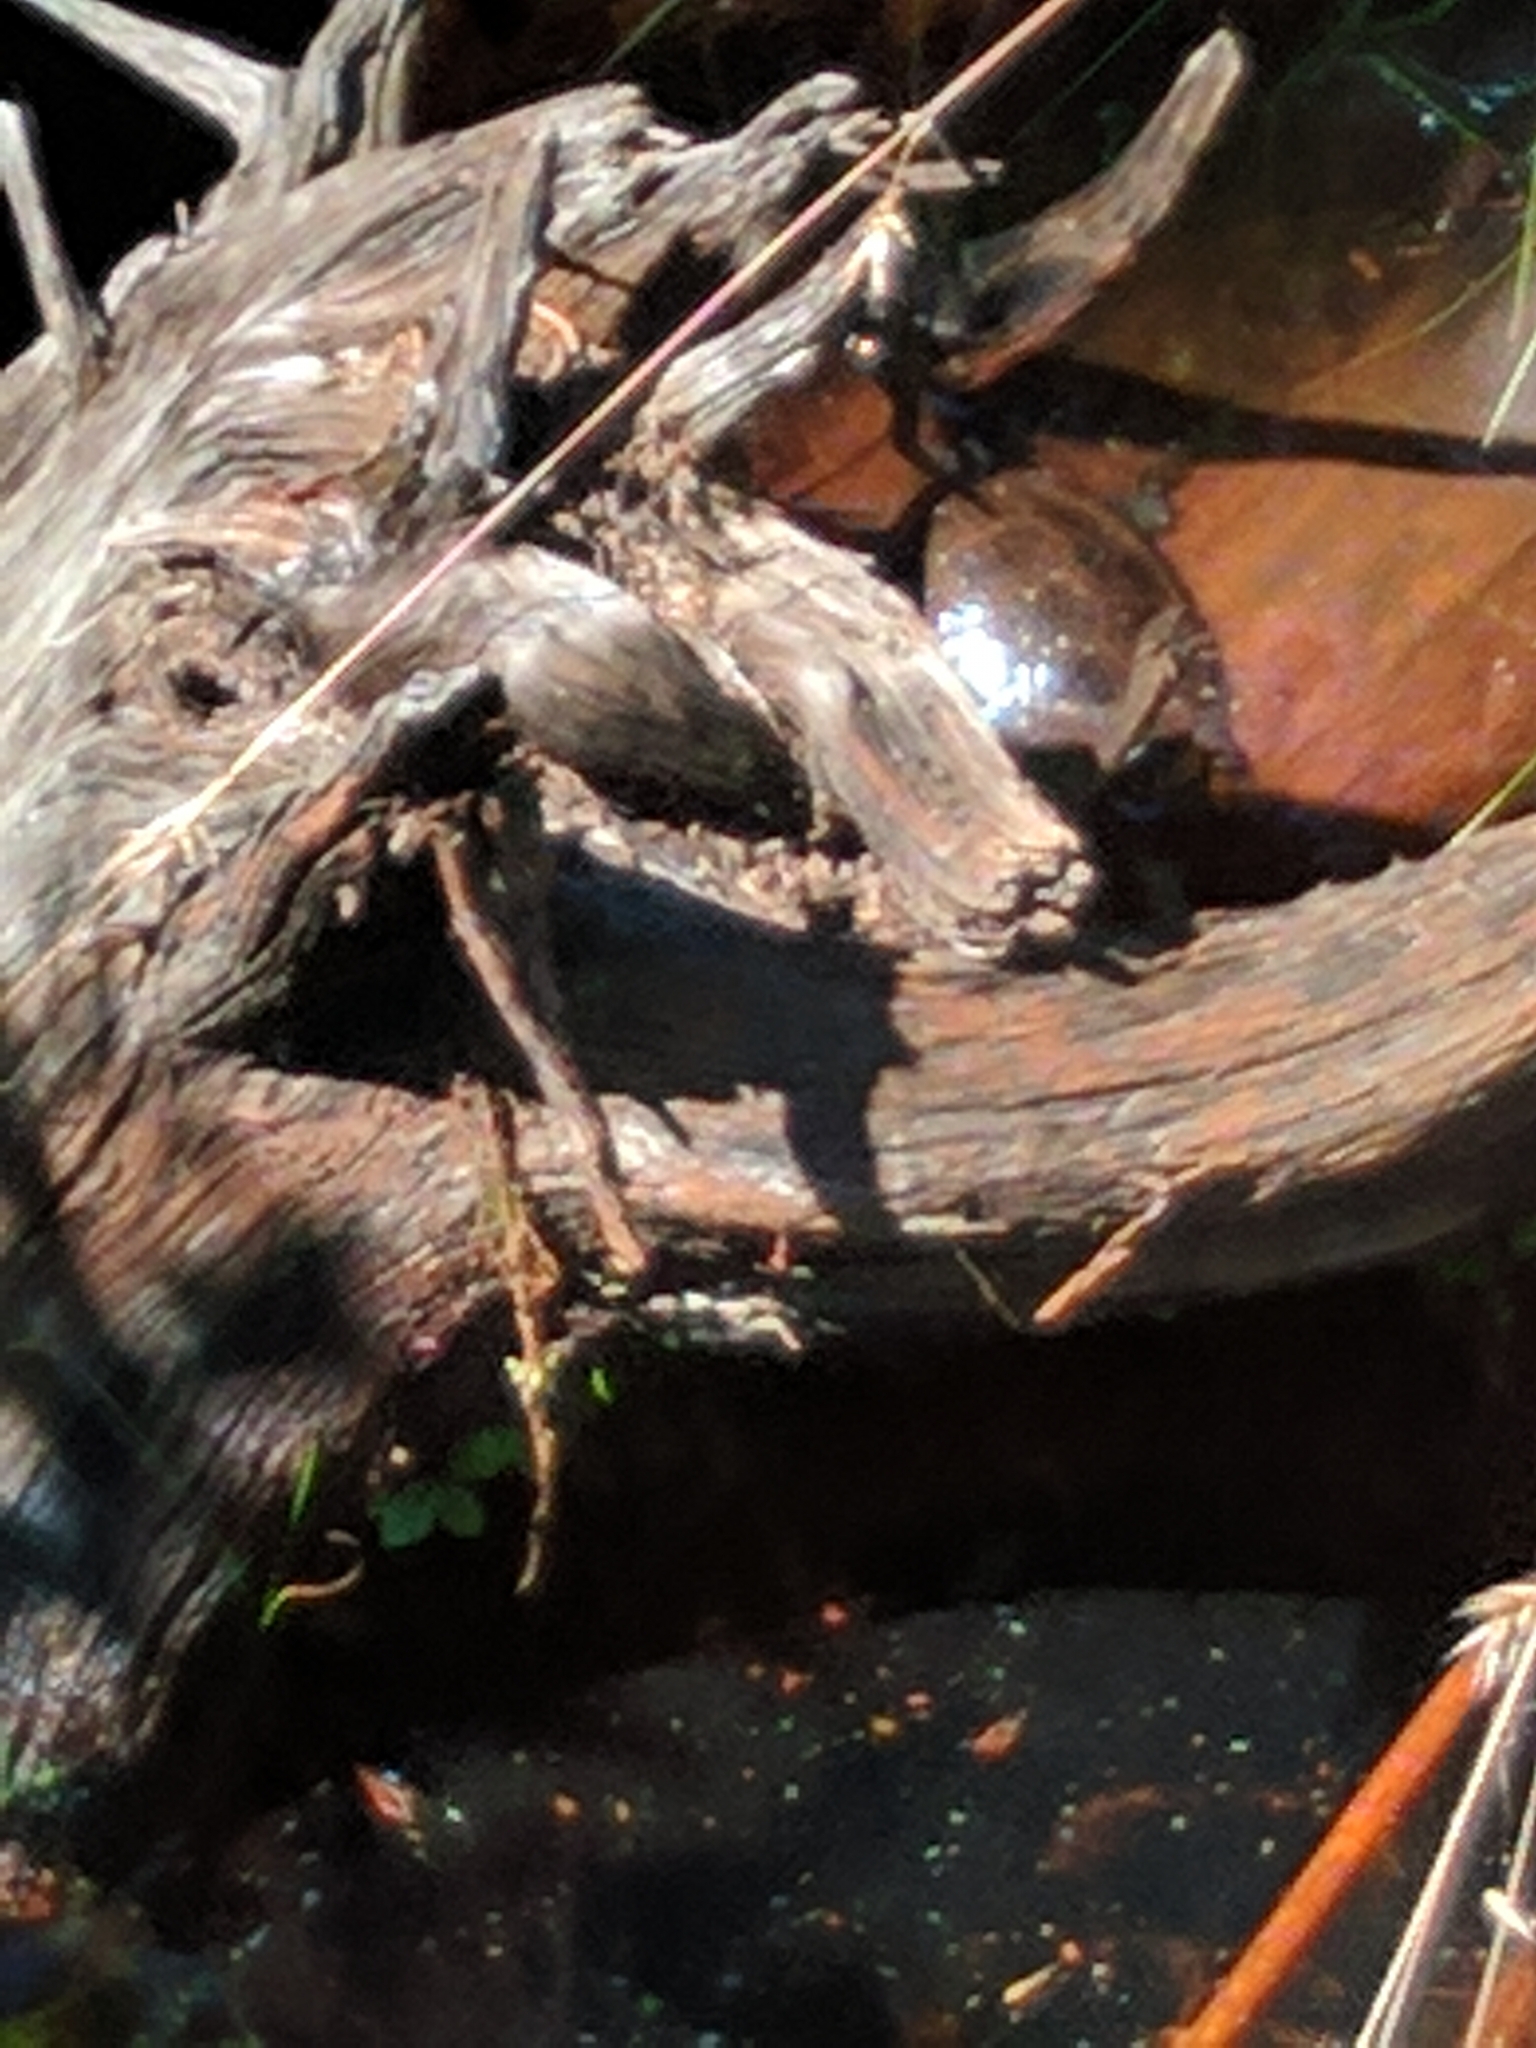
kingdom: Animalia
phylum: Chordata
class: Testudines
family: Emydidae
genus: Clemmys
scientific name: Clemmys guttata
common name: Spotted turtle
